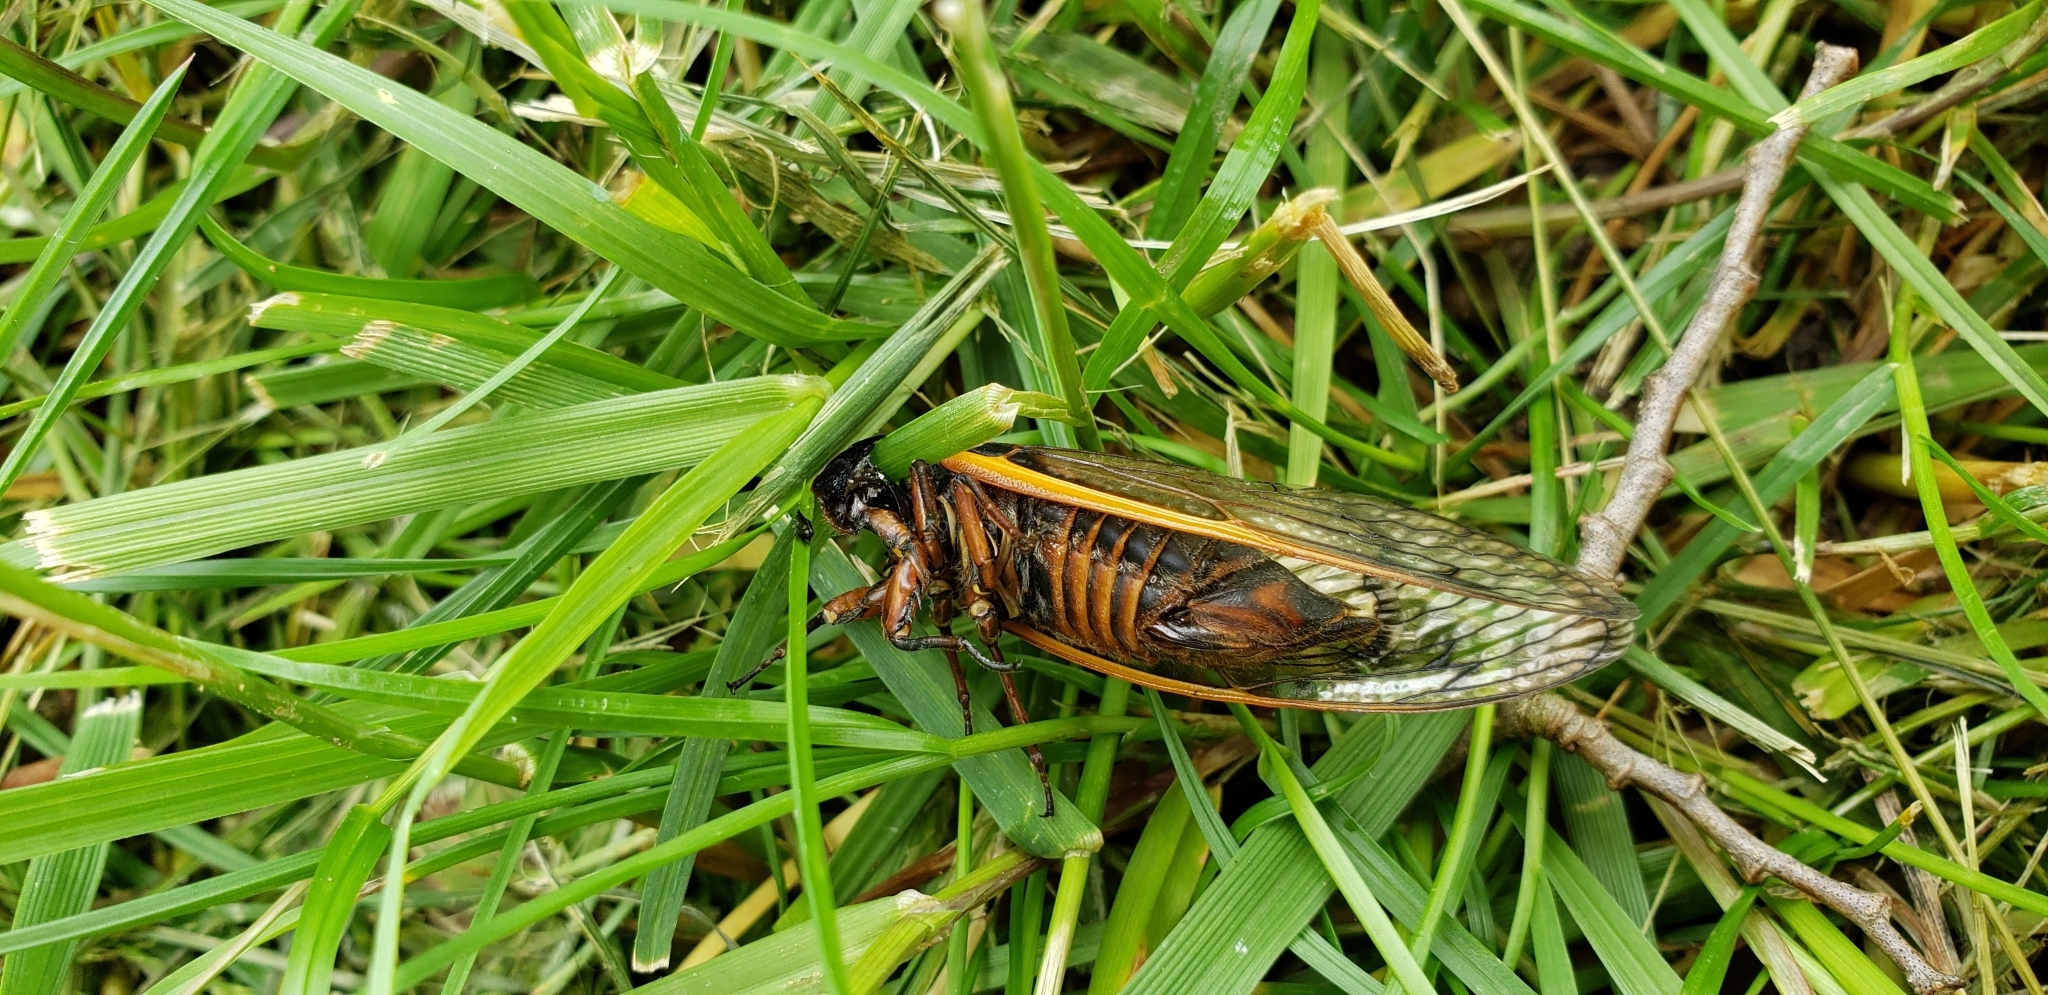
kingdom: Animalia
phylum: Arthropoda
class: Insecta
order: Hemiptera
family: Cicadidae
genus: Magicicada
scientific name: Magicicada septendecim
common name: Periodical cicada
